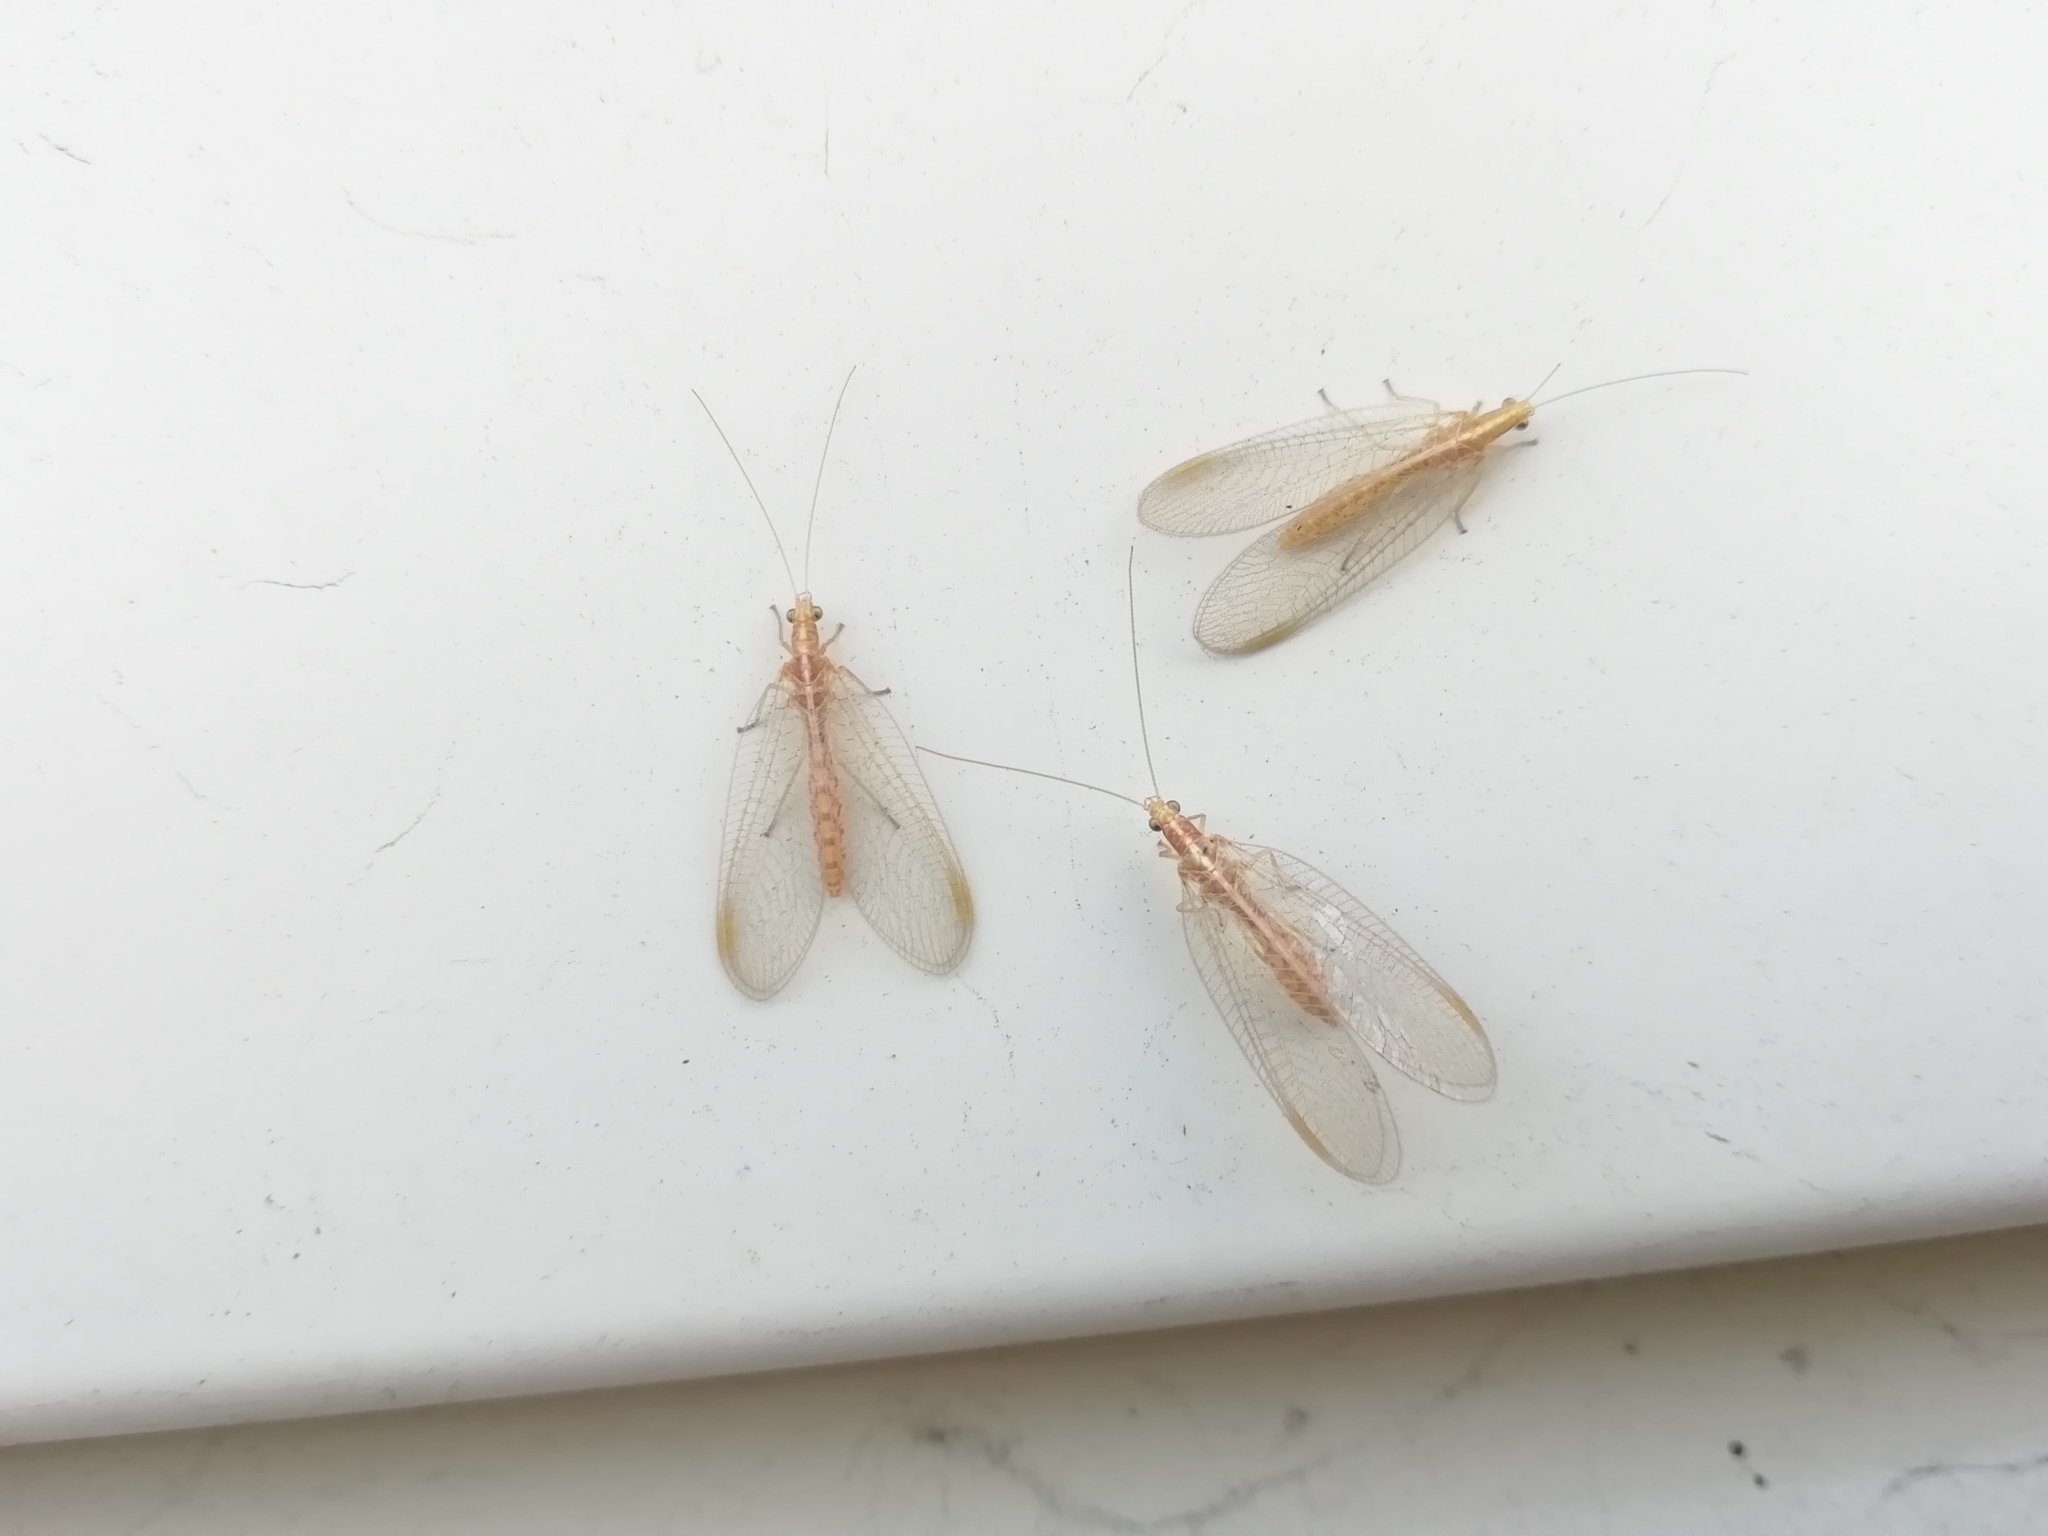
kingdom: Animalia
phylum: Arthropoda
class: Insecta
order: Neuroptera
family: Chrysopidae
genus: Chrysoperla
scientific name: Chrysoperla
